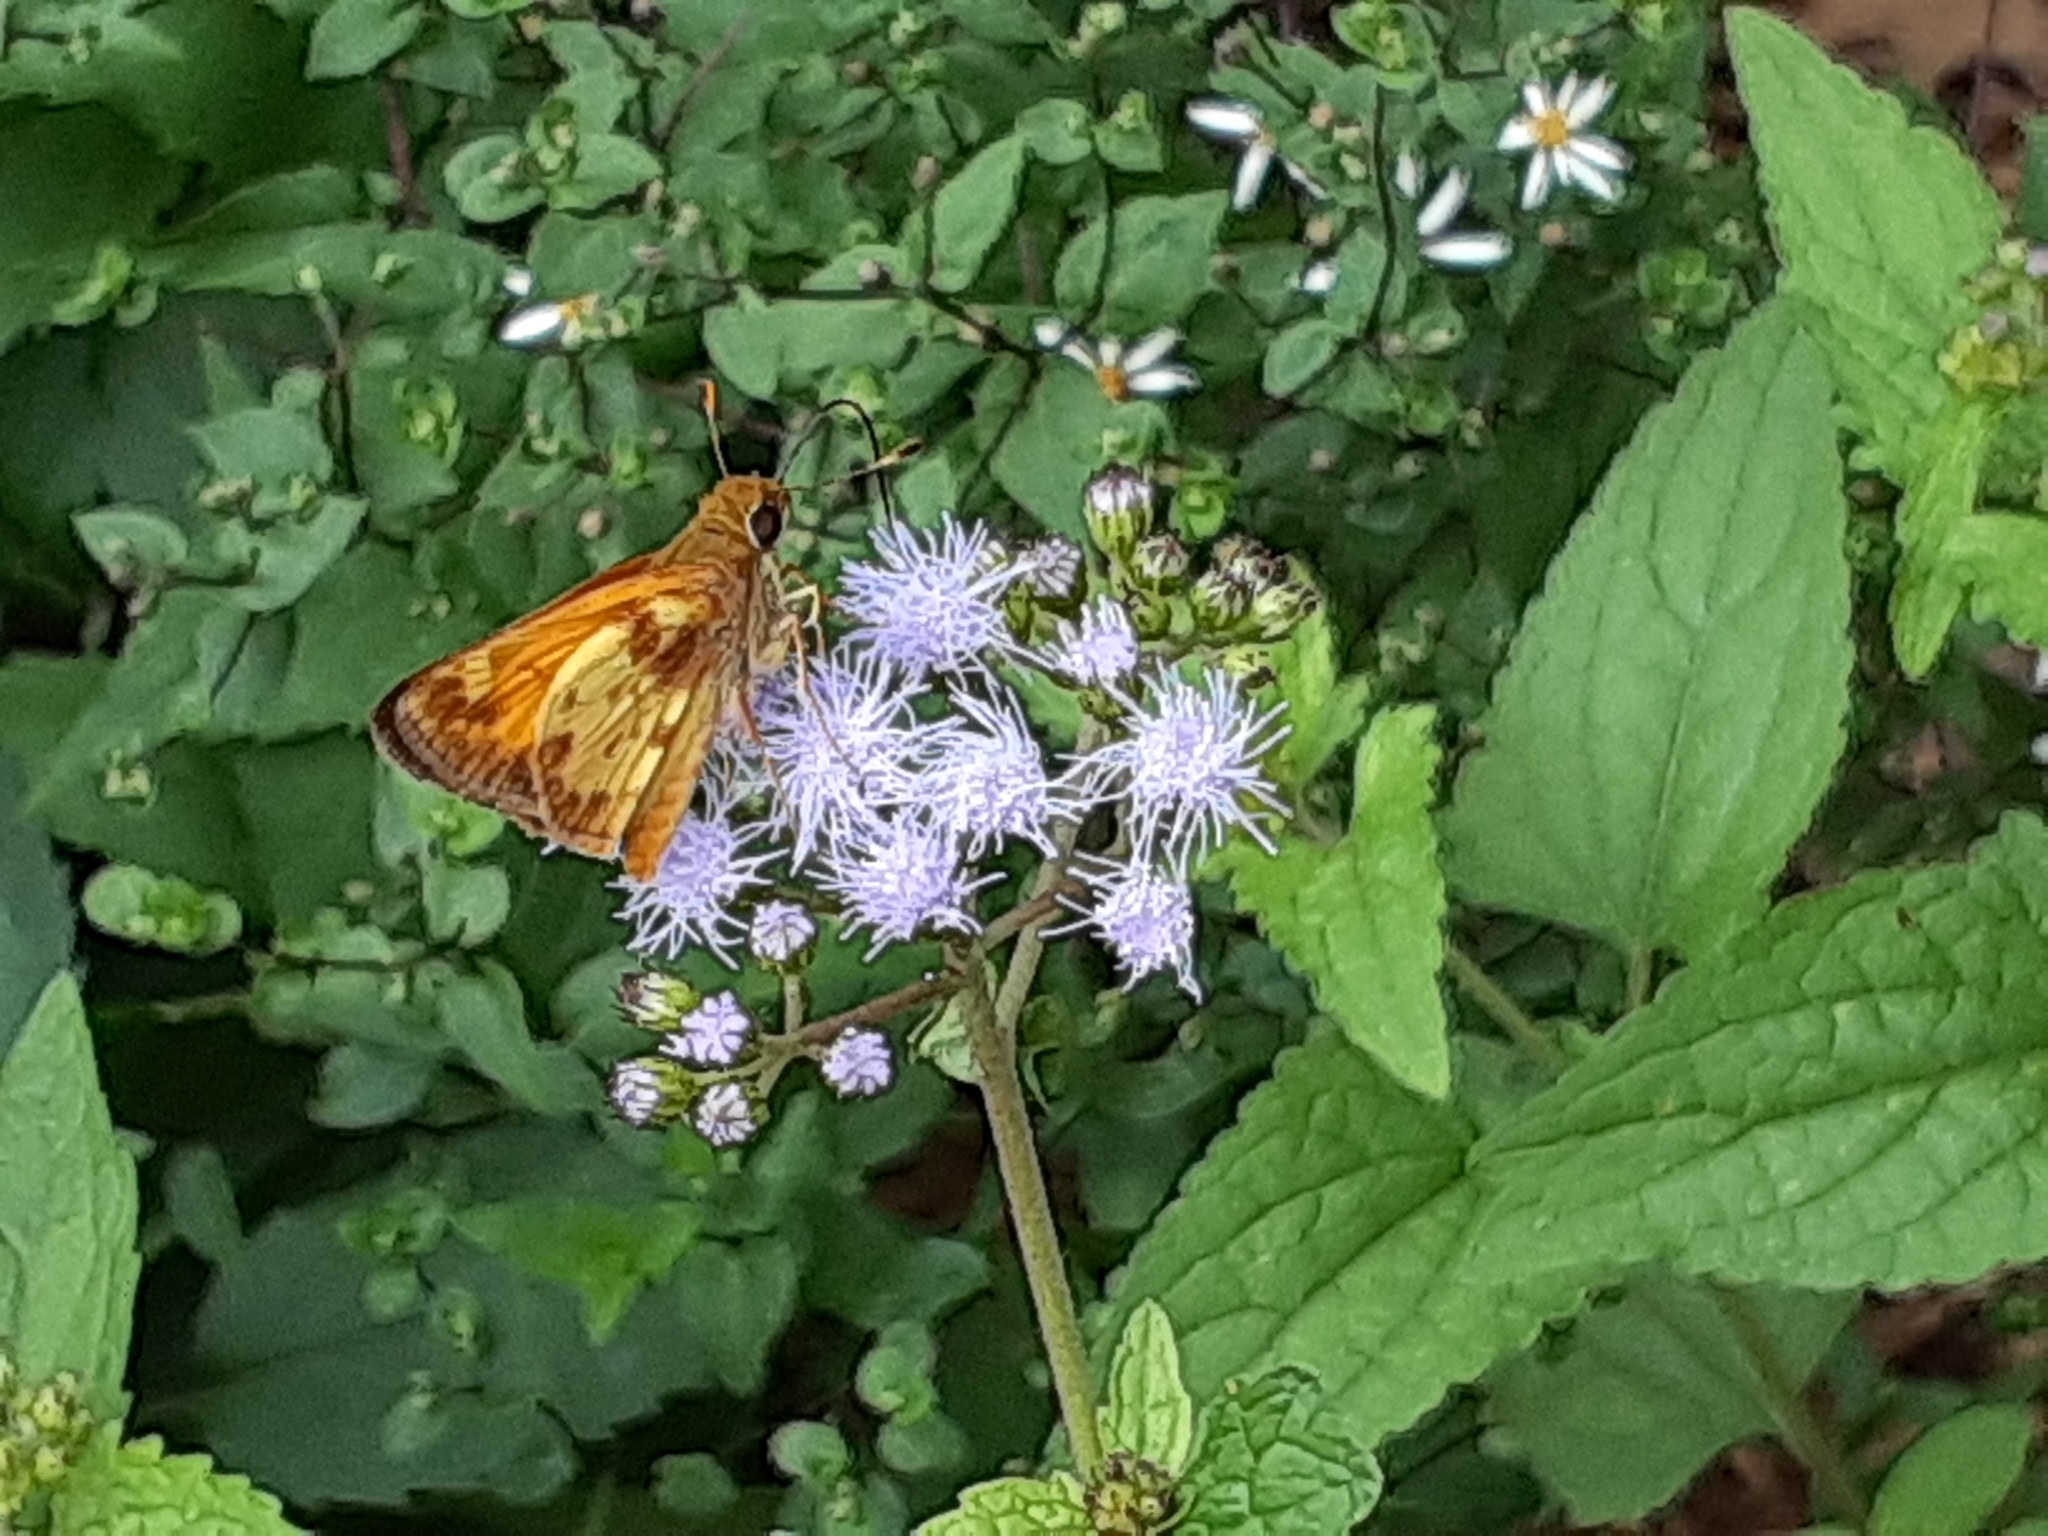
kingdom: Animalia
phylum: Arthropoda
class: Insecta
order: Lepidoptera
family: Hesperiidae
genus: Lon
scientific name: Lon zabulon
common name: Zabulon skipper
